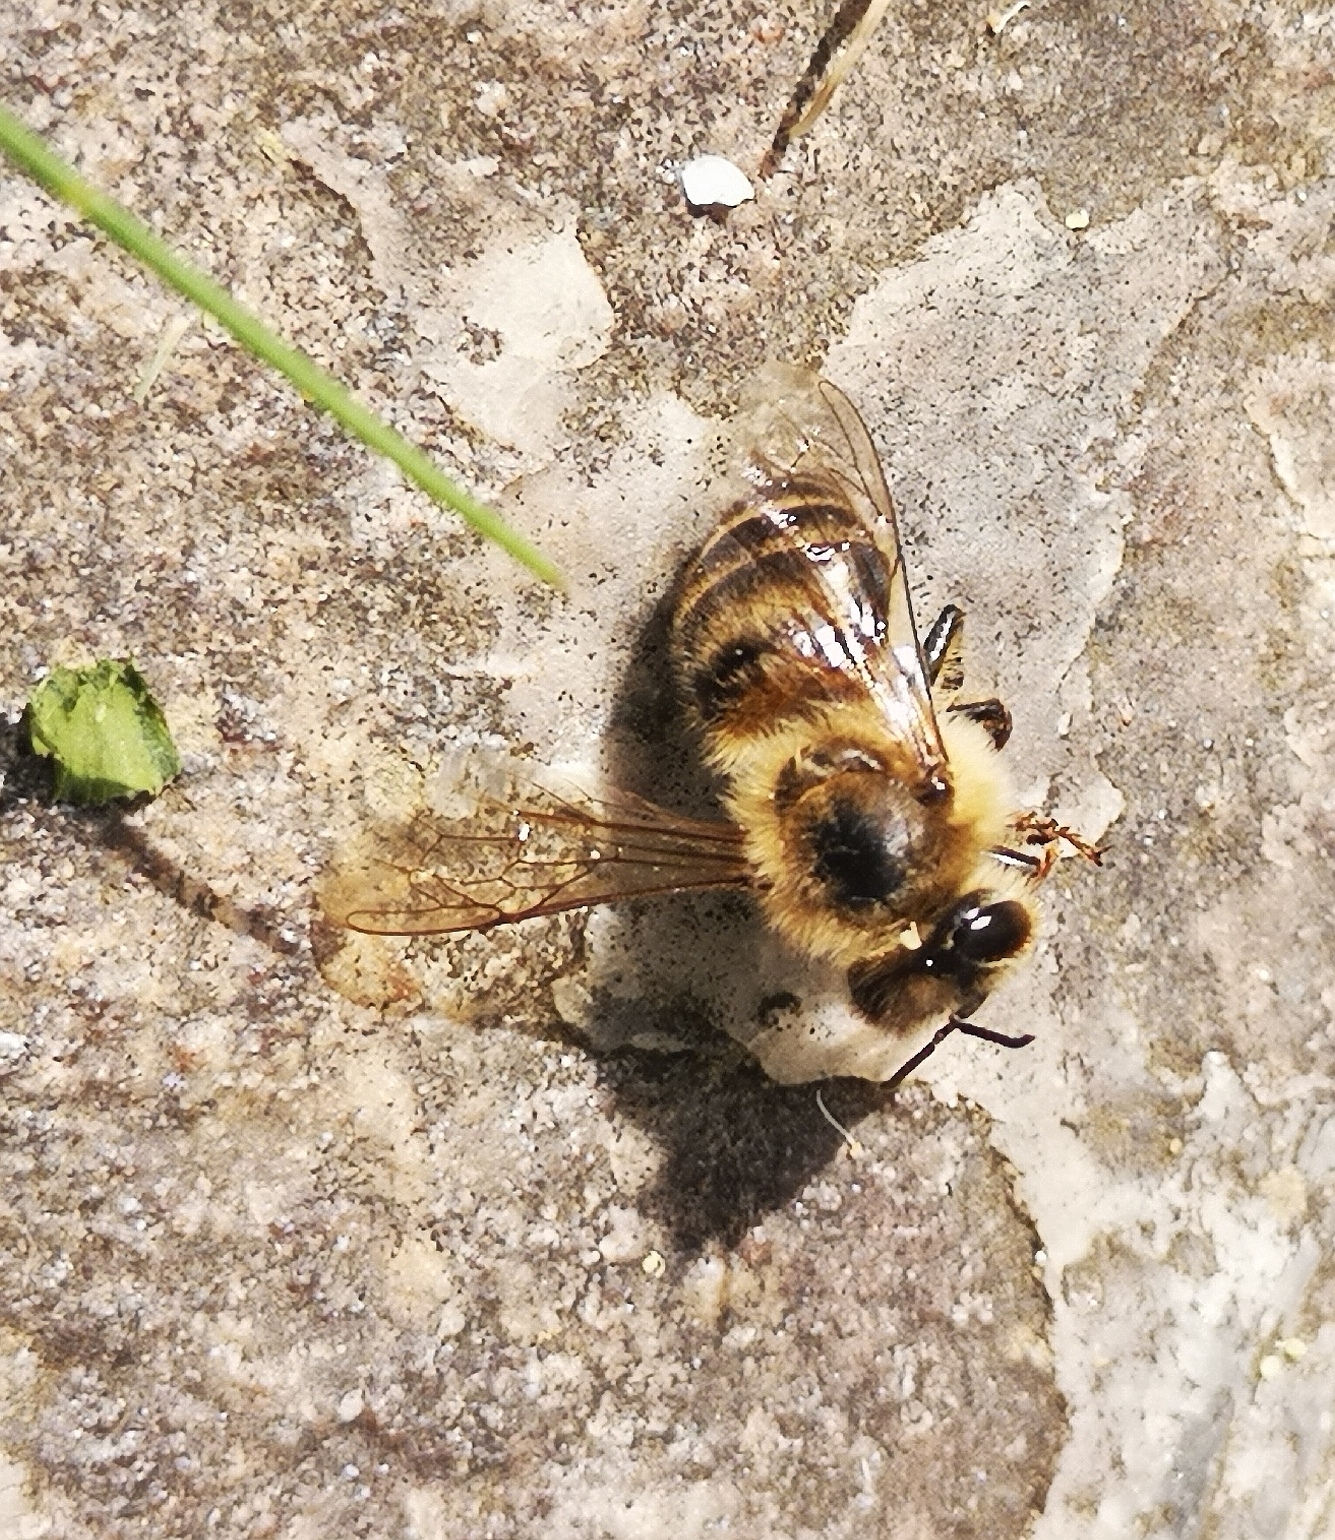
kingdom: Animalia
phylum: Arthropoda
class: Insecta
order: Hymenoptera
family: Apidae
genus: Apis
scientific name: Apis mellifera
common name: Honey bee
